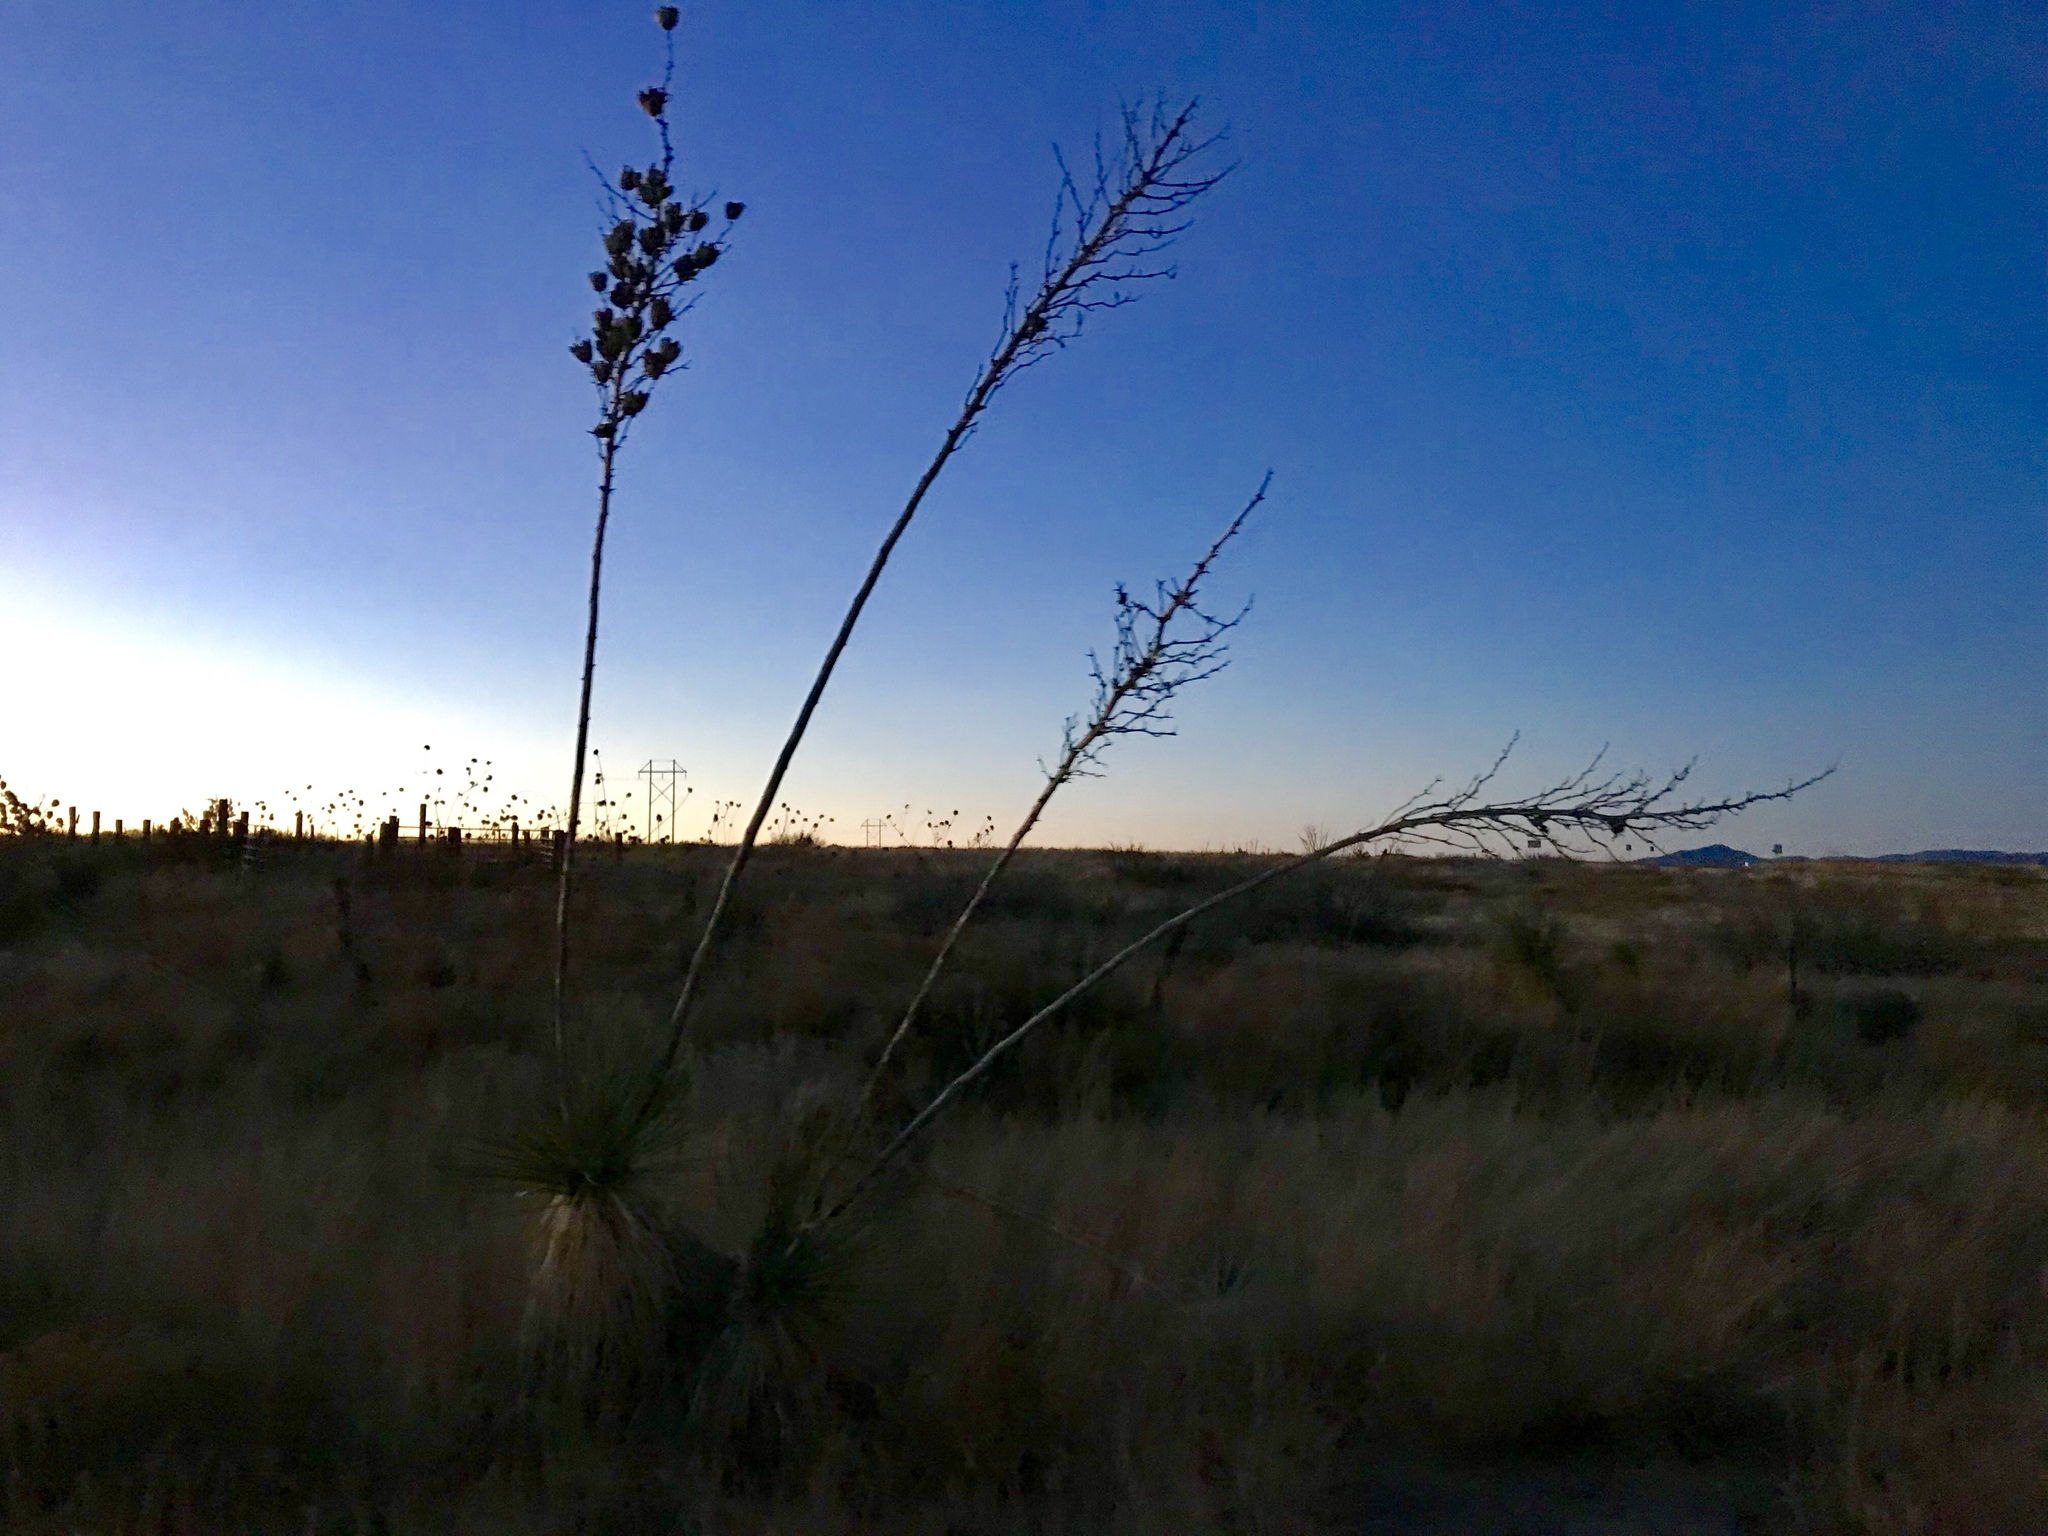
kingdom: Plantae
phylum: Tracheophyta
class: Liliopsida
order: Asparagales
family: Asparagaceae
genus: Yucca
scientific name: Yucca elata
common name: Palmella
